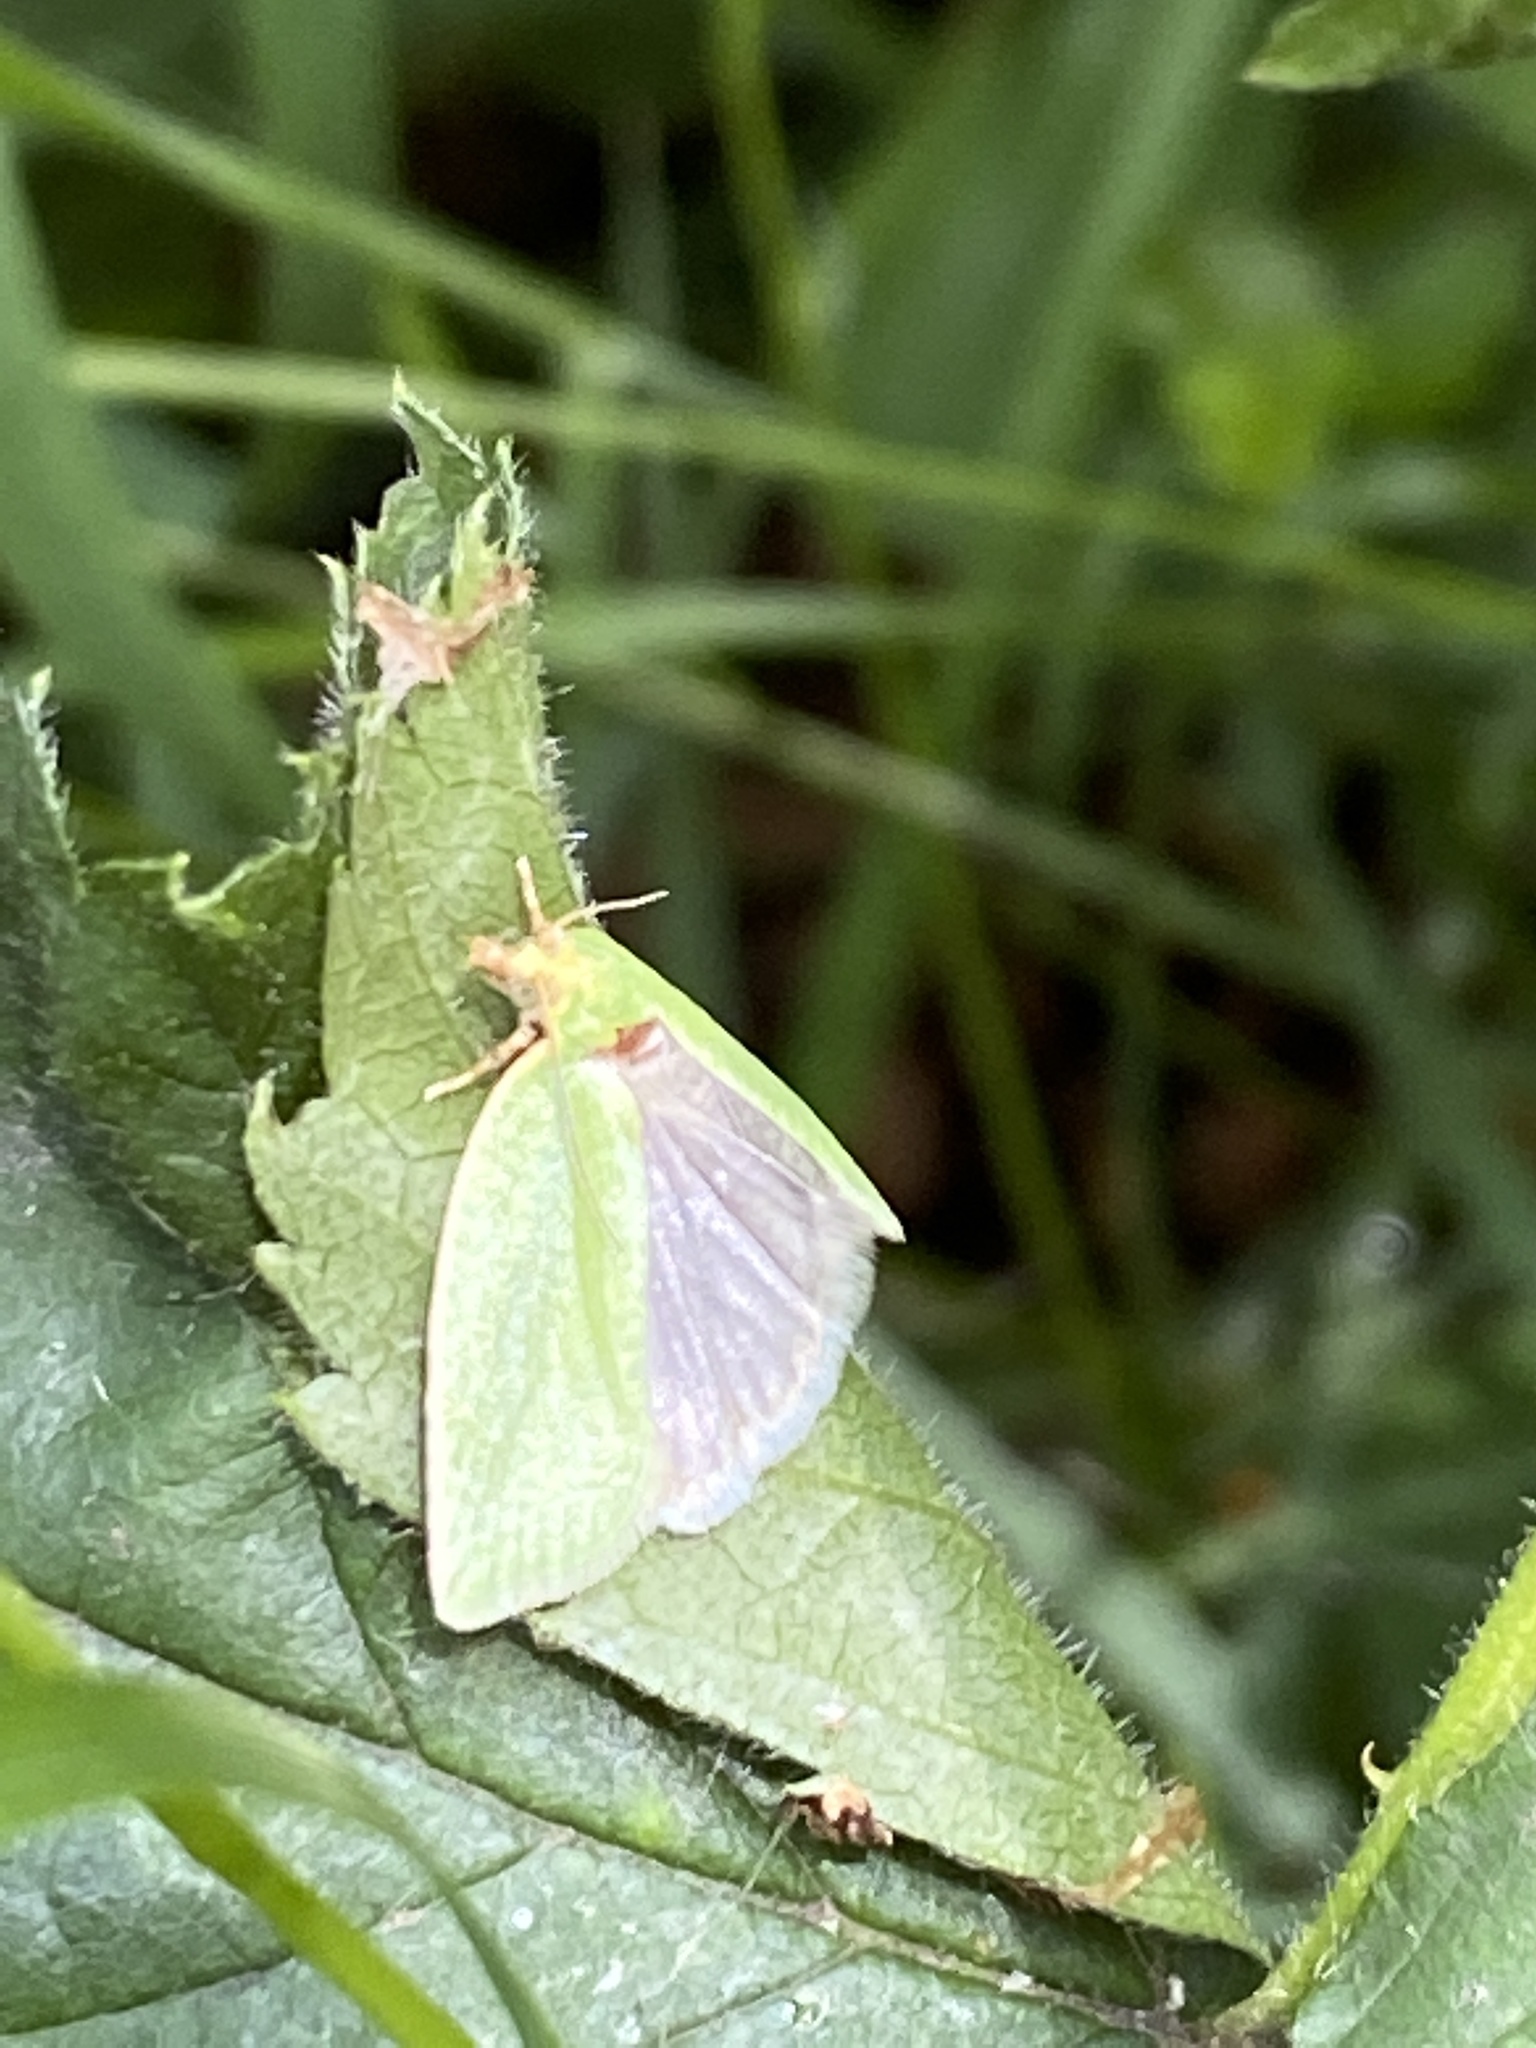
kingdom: Animalia
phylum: Arthropoda
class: Insecta
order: Lepidoptera
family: Tortricidae
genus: Tortrix
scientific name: Tortrix viridana
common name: Green oak tortrix
